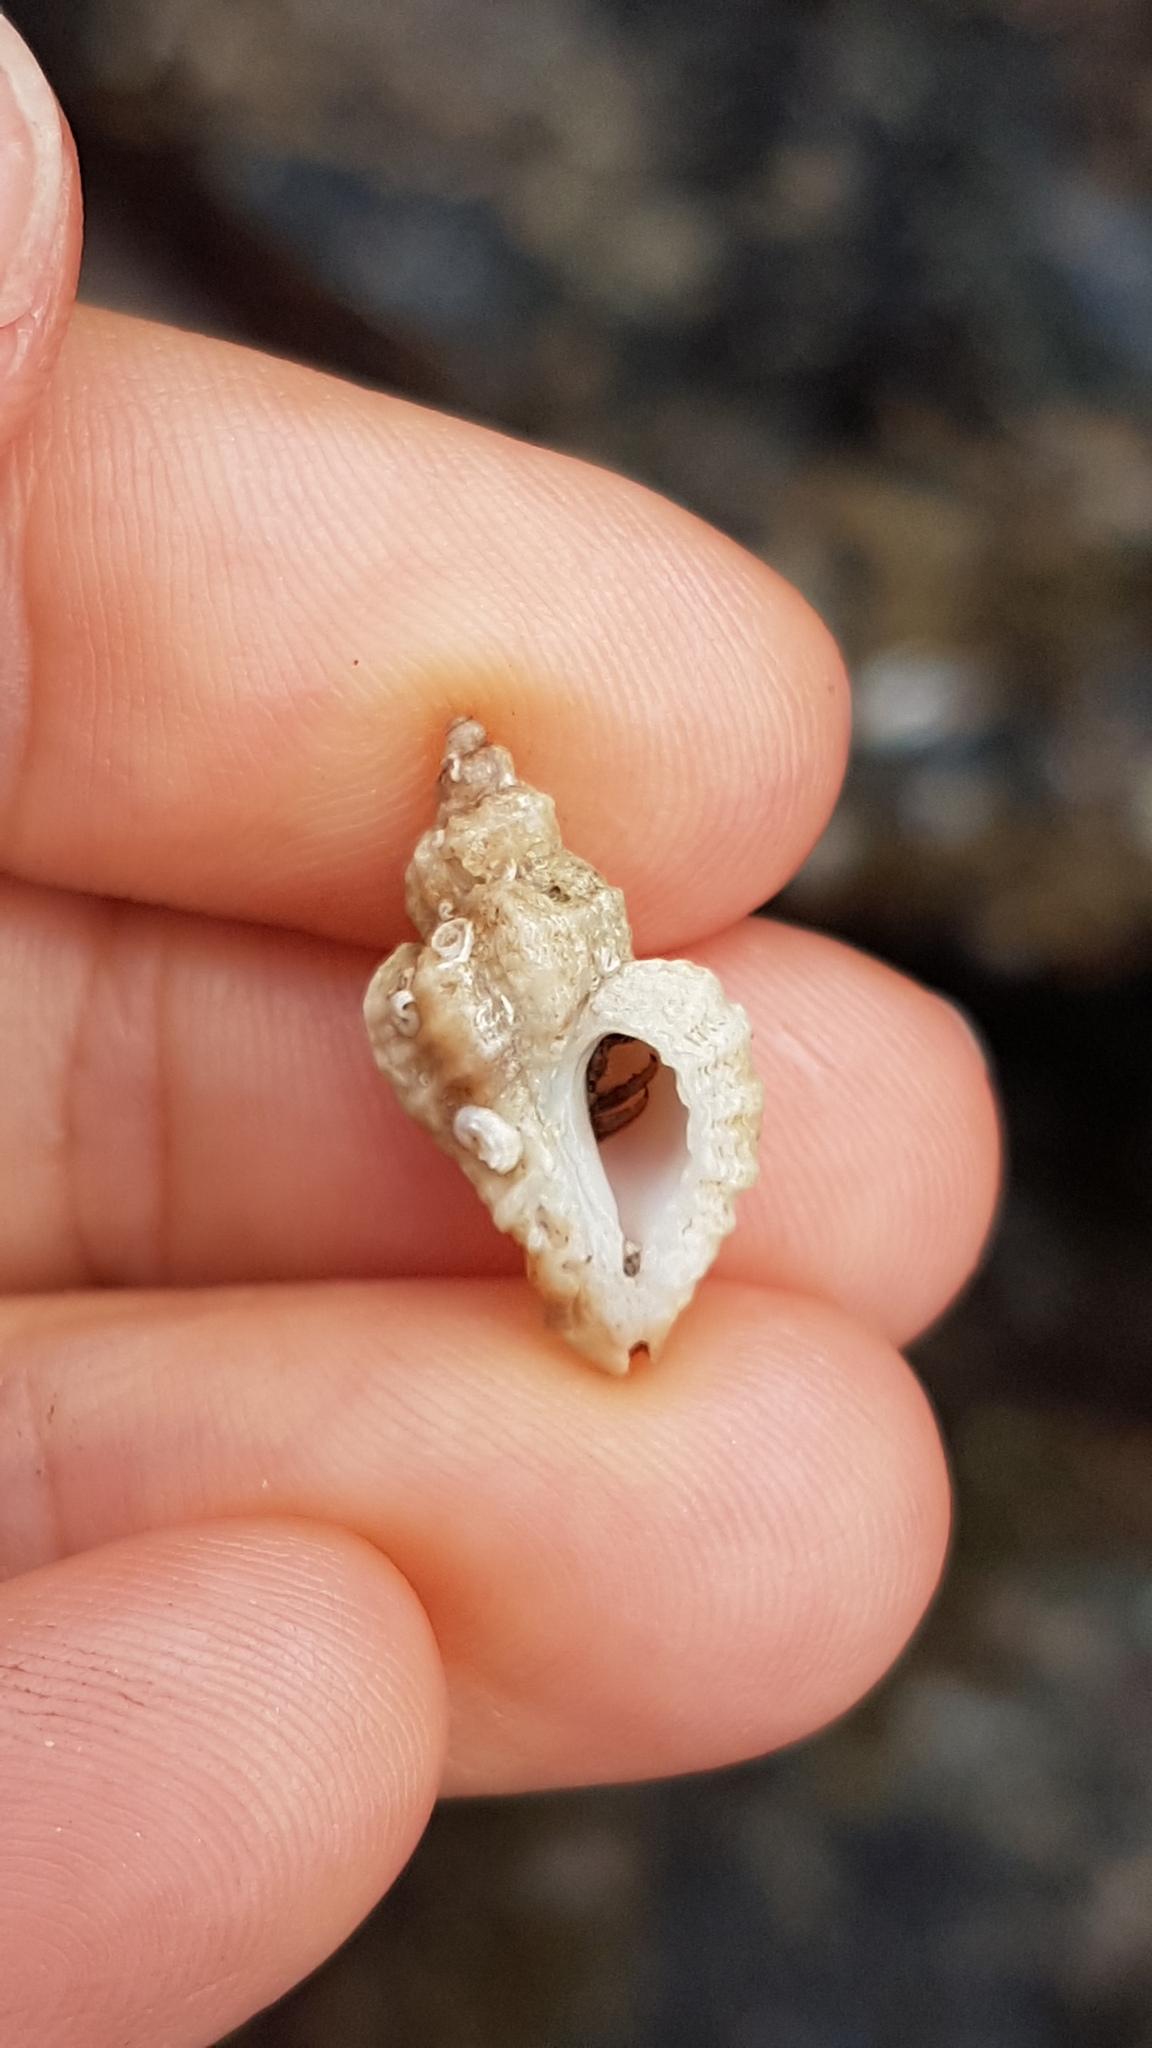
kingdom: Animalia
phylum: Mollusca
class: Gastropoda
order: Neogastropoda
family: Muricidae
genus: Ocenebra
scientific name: Ocenebra erinaceus
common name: European sting winkle
